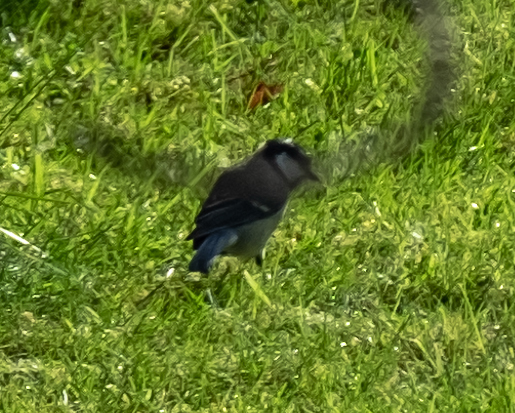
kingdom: Animalia
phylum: Chordata
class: Aves
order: Passeriformes
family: Paridae
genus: Parus
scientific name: Parus major
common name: Great tit
